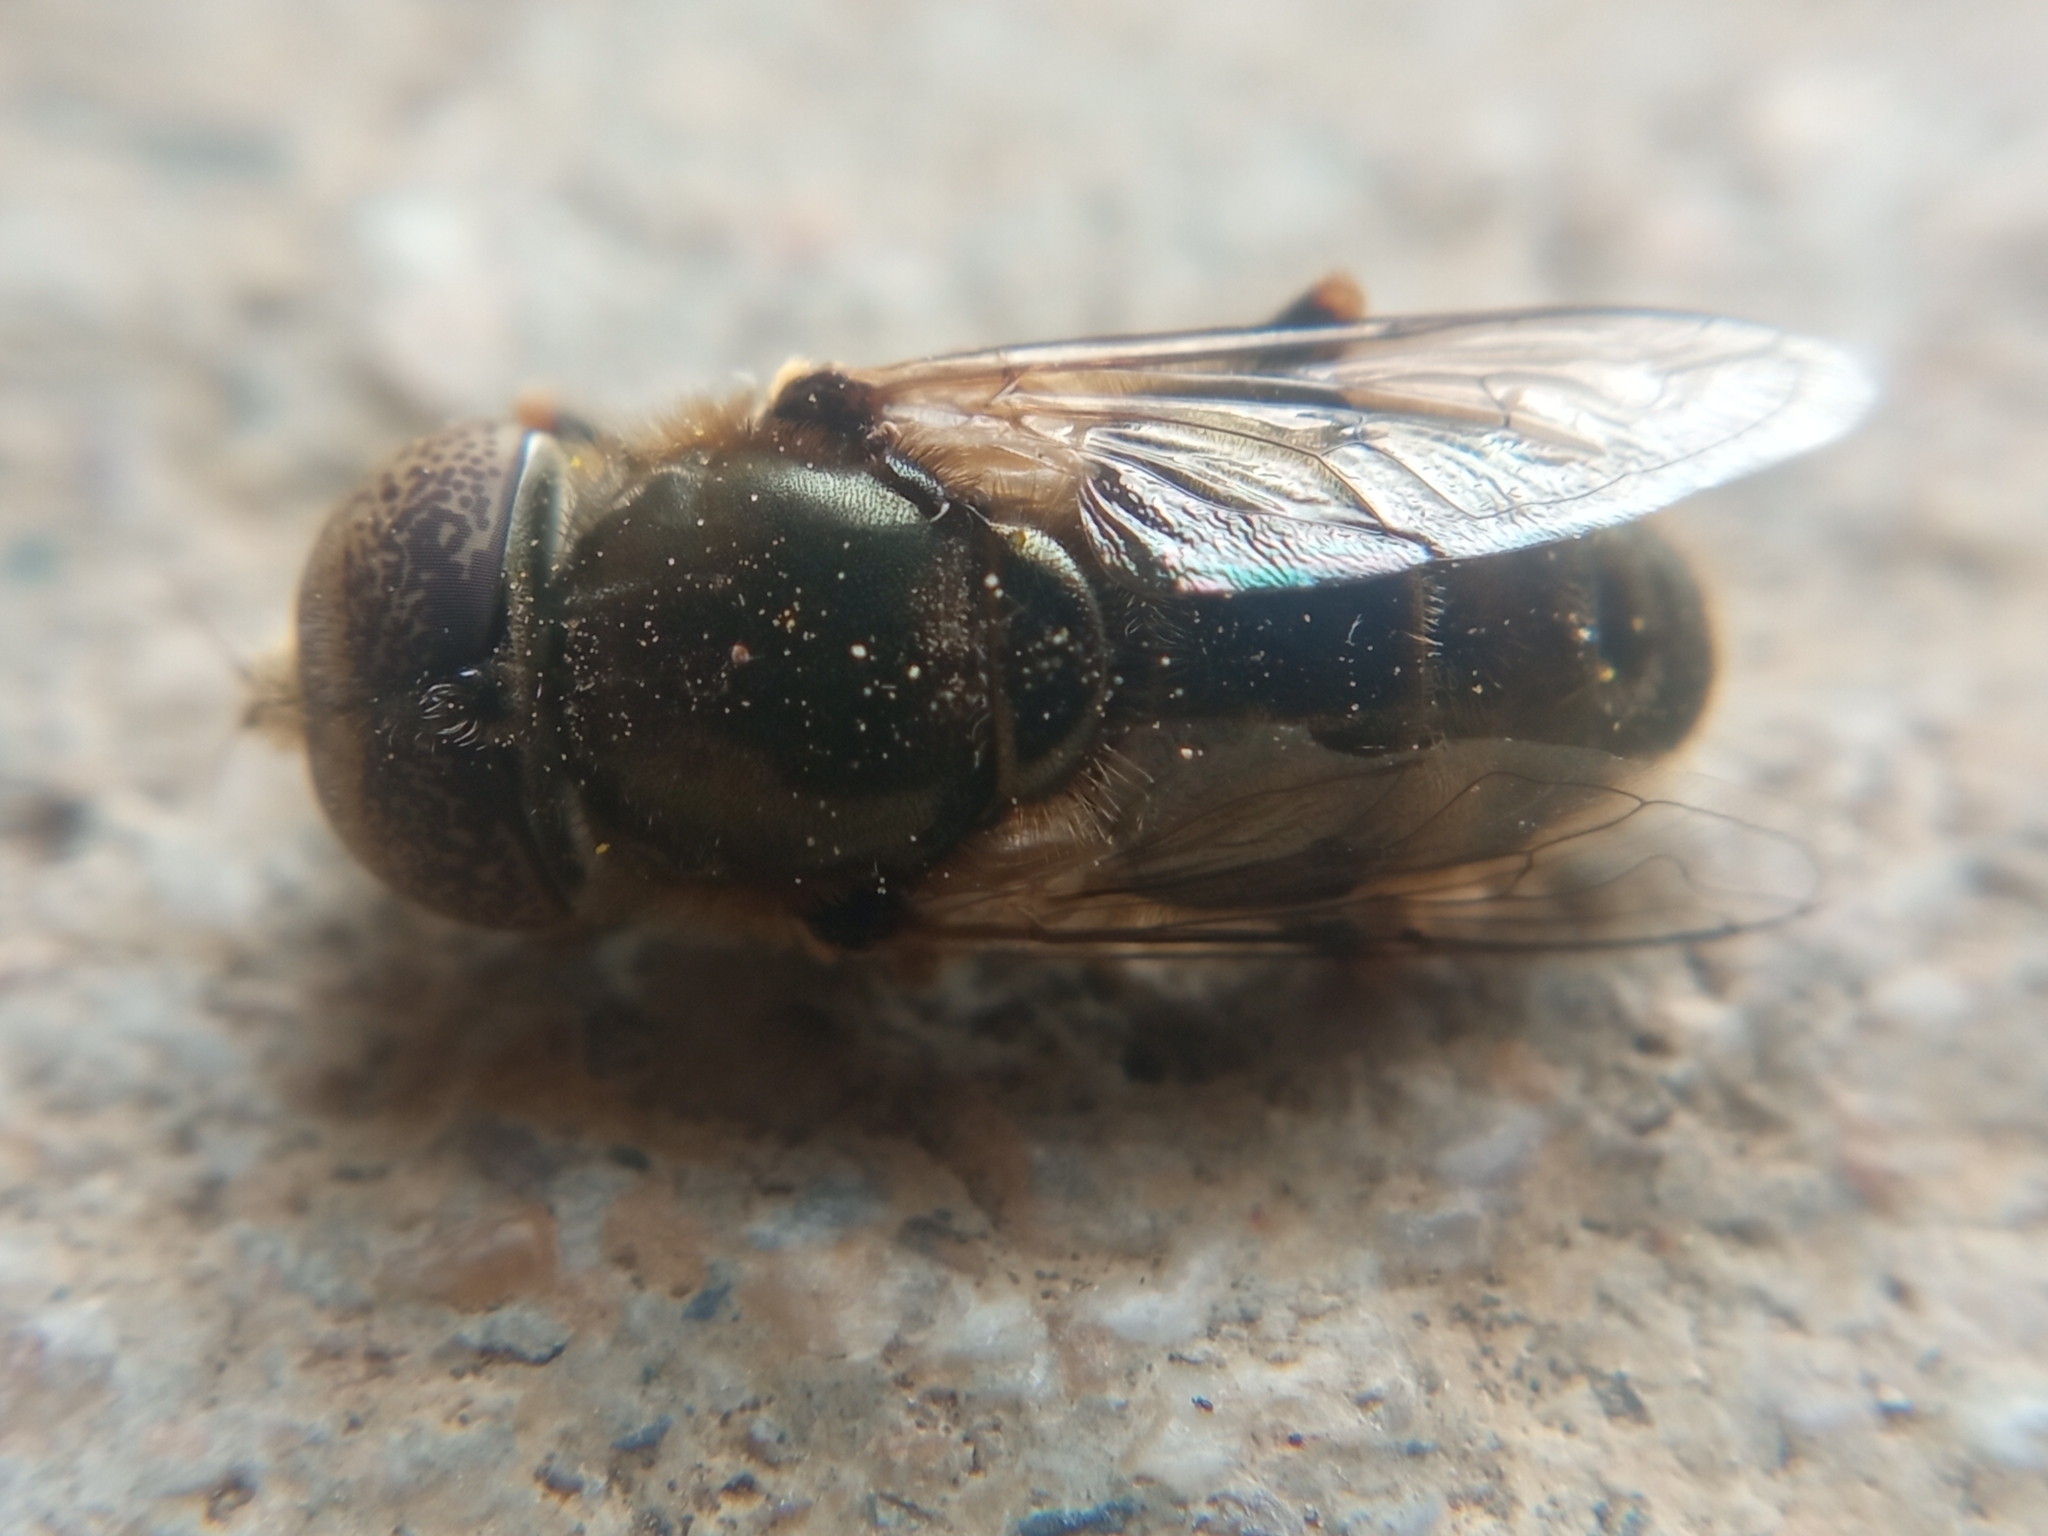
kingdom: Animalia
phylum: Arthropoda
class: Insecta
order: Diptera
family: Syrphidae
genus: Eristalinus
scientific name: Eristalinus aeneus
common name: Syrphid fly
